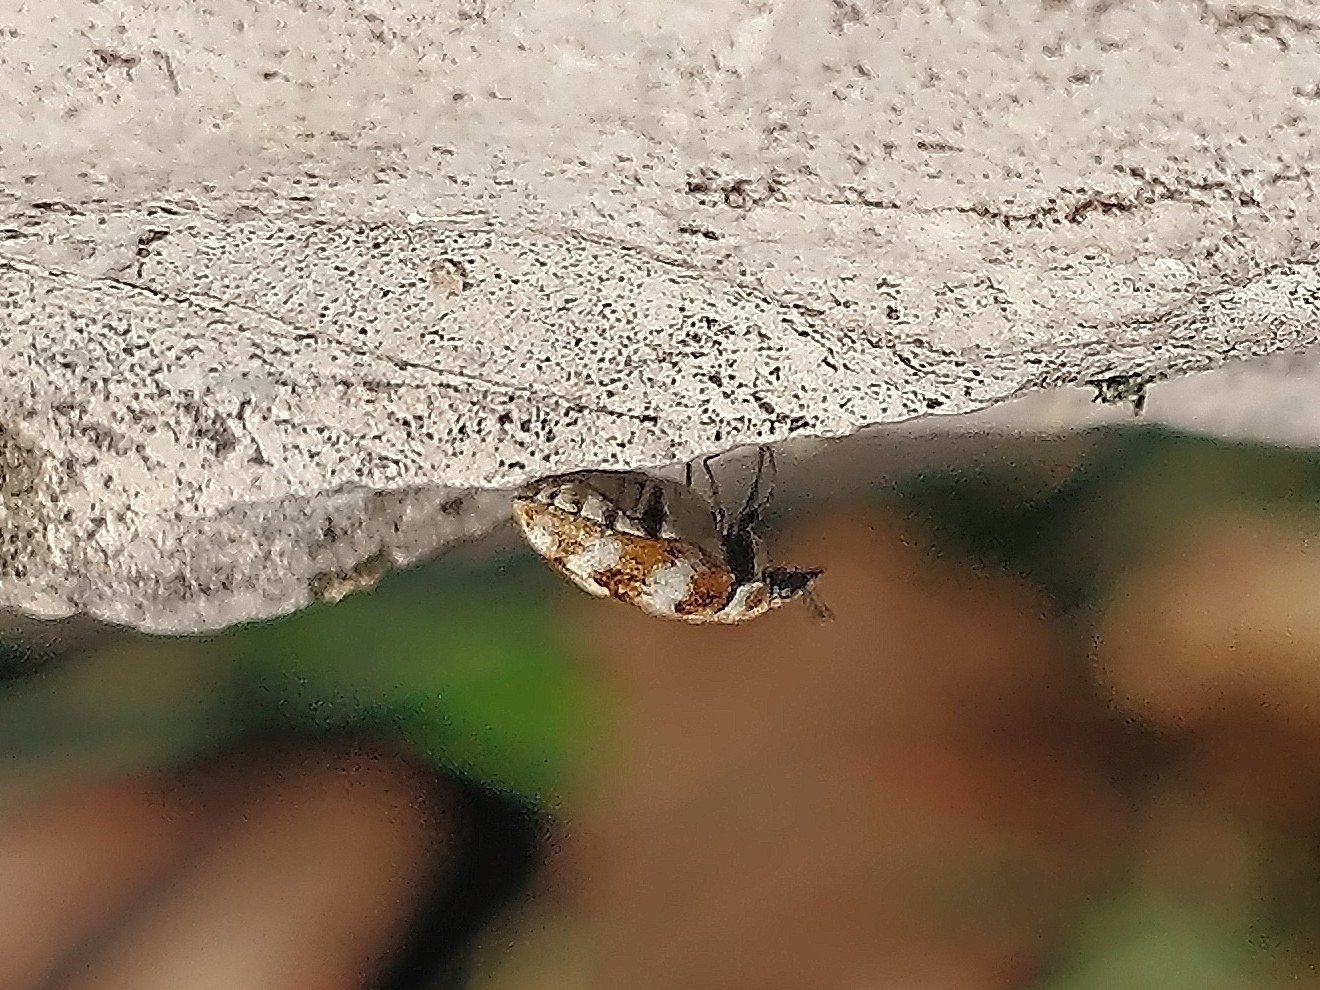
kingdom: Animalia
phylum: Arthropoda
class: Insecta
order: Coleoptera
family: Dermestidae
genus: Anthrenus
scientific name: Anthrenus verbasci
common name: Varied carpet beetle
